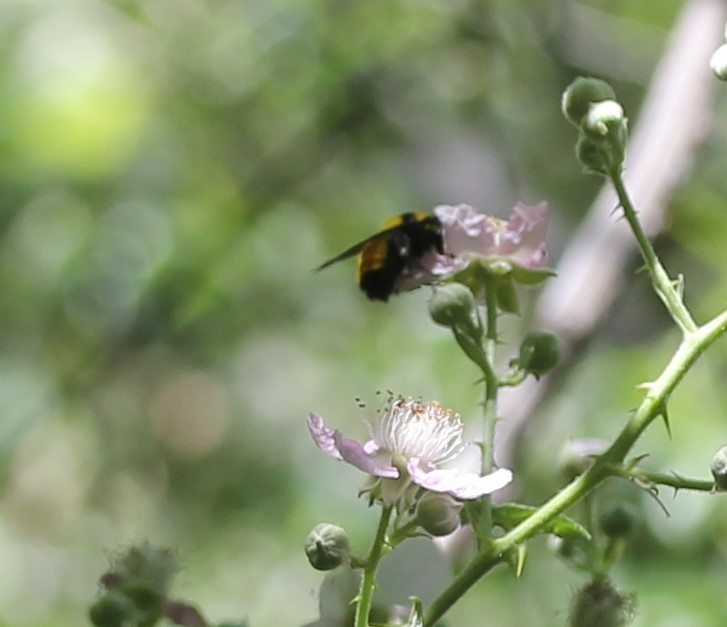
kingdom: Animalia
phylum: Arthropoda
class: Insecta
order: Hymenoptera
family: Apidae
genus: Bombus
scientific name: Bombus sonorus
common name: Sonoran bumble bee
